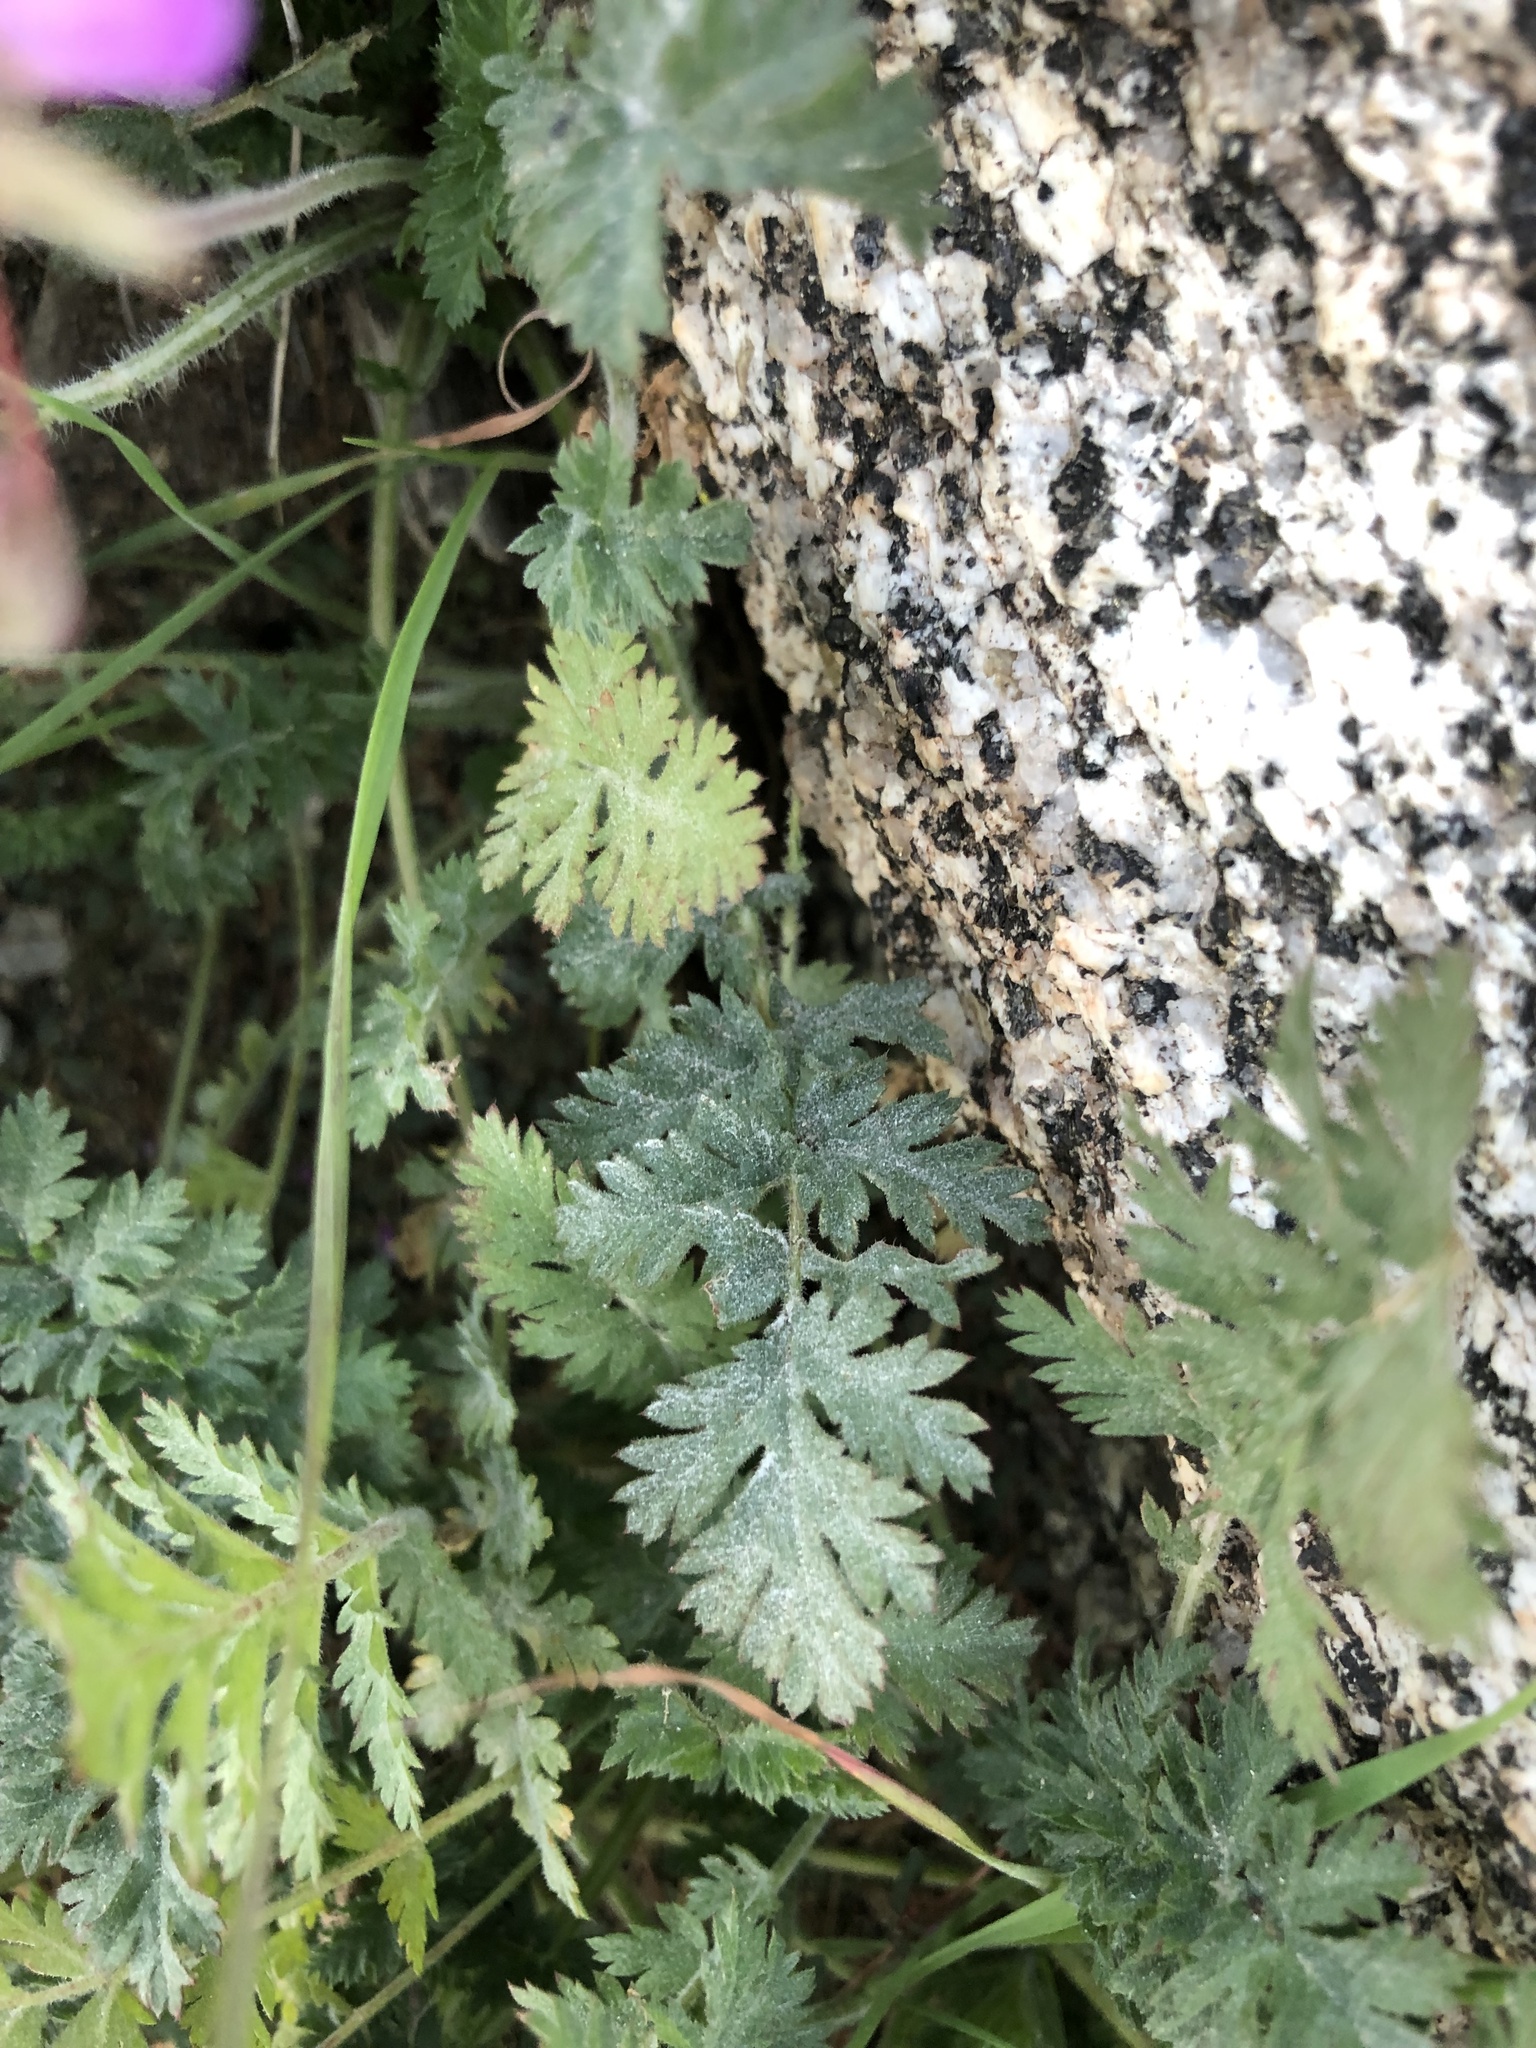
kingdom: Plantae
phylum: Tracheophyta
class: Magnoliopsida
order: Geraniales
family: Geraniaceae
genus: Erodium
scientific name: Erodium cicutarium
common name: Common stork's-bill
